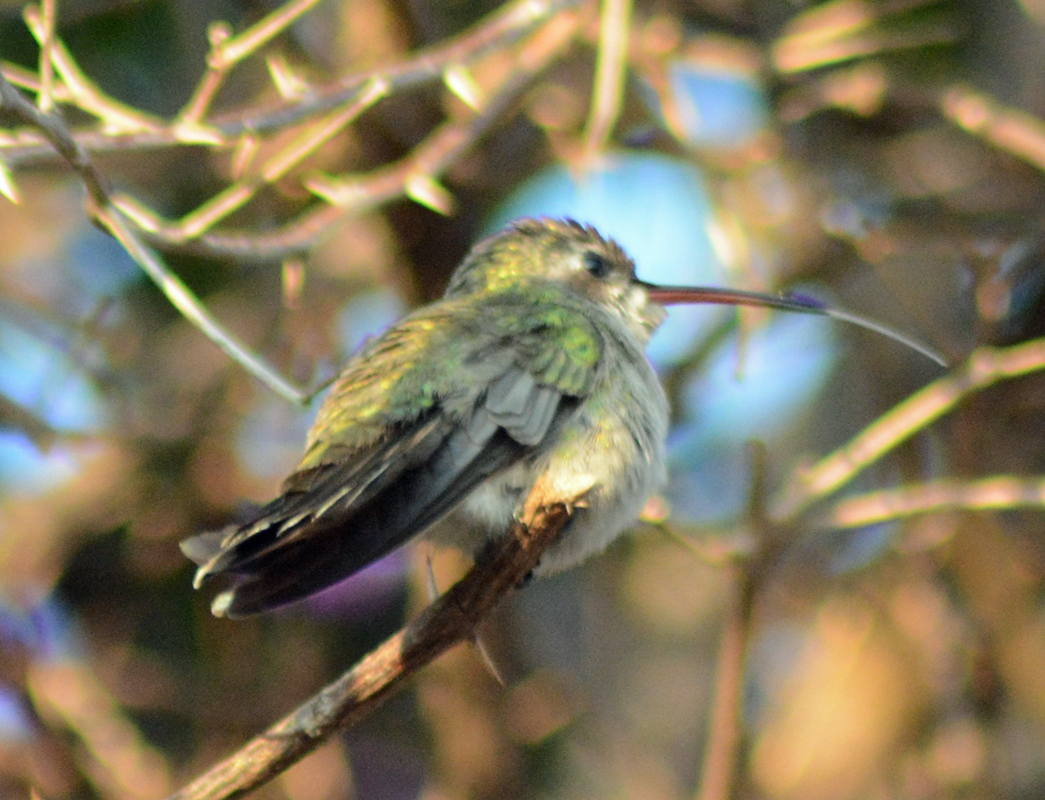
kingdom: Animalia
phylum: Chordata
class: Aves
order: Apodiformes
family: Trochilidae
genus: Cynanthus
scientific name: Cynanthus latirostris
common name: Broad-billed hummingbird
